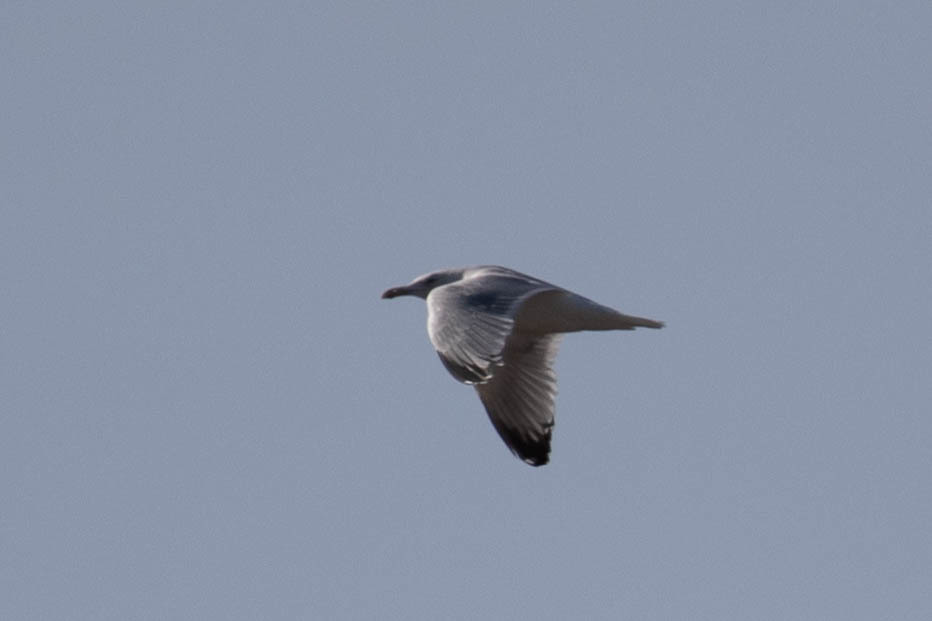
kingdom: Animalia
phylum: Chordata
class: Aves
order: Charadriiformes
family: Laridae
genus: Larus
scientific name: Larus delawarensis
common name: Ring-billed gull
